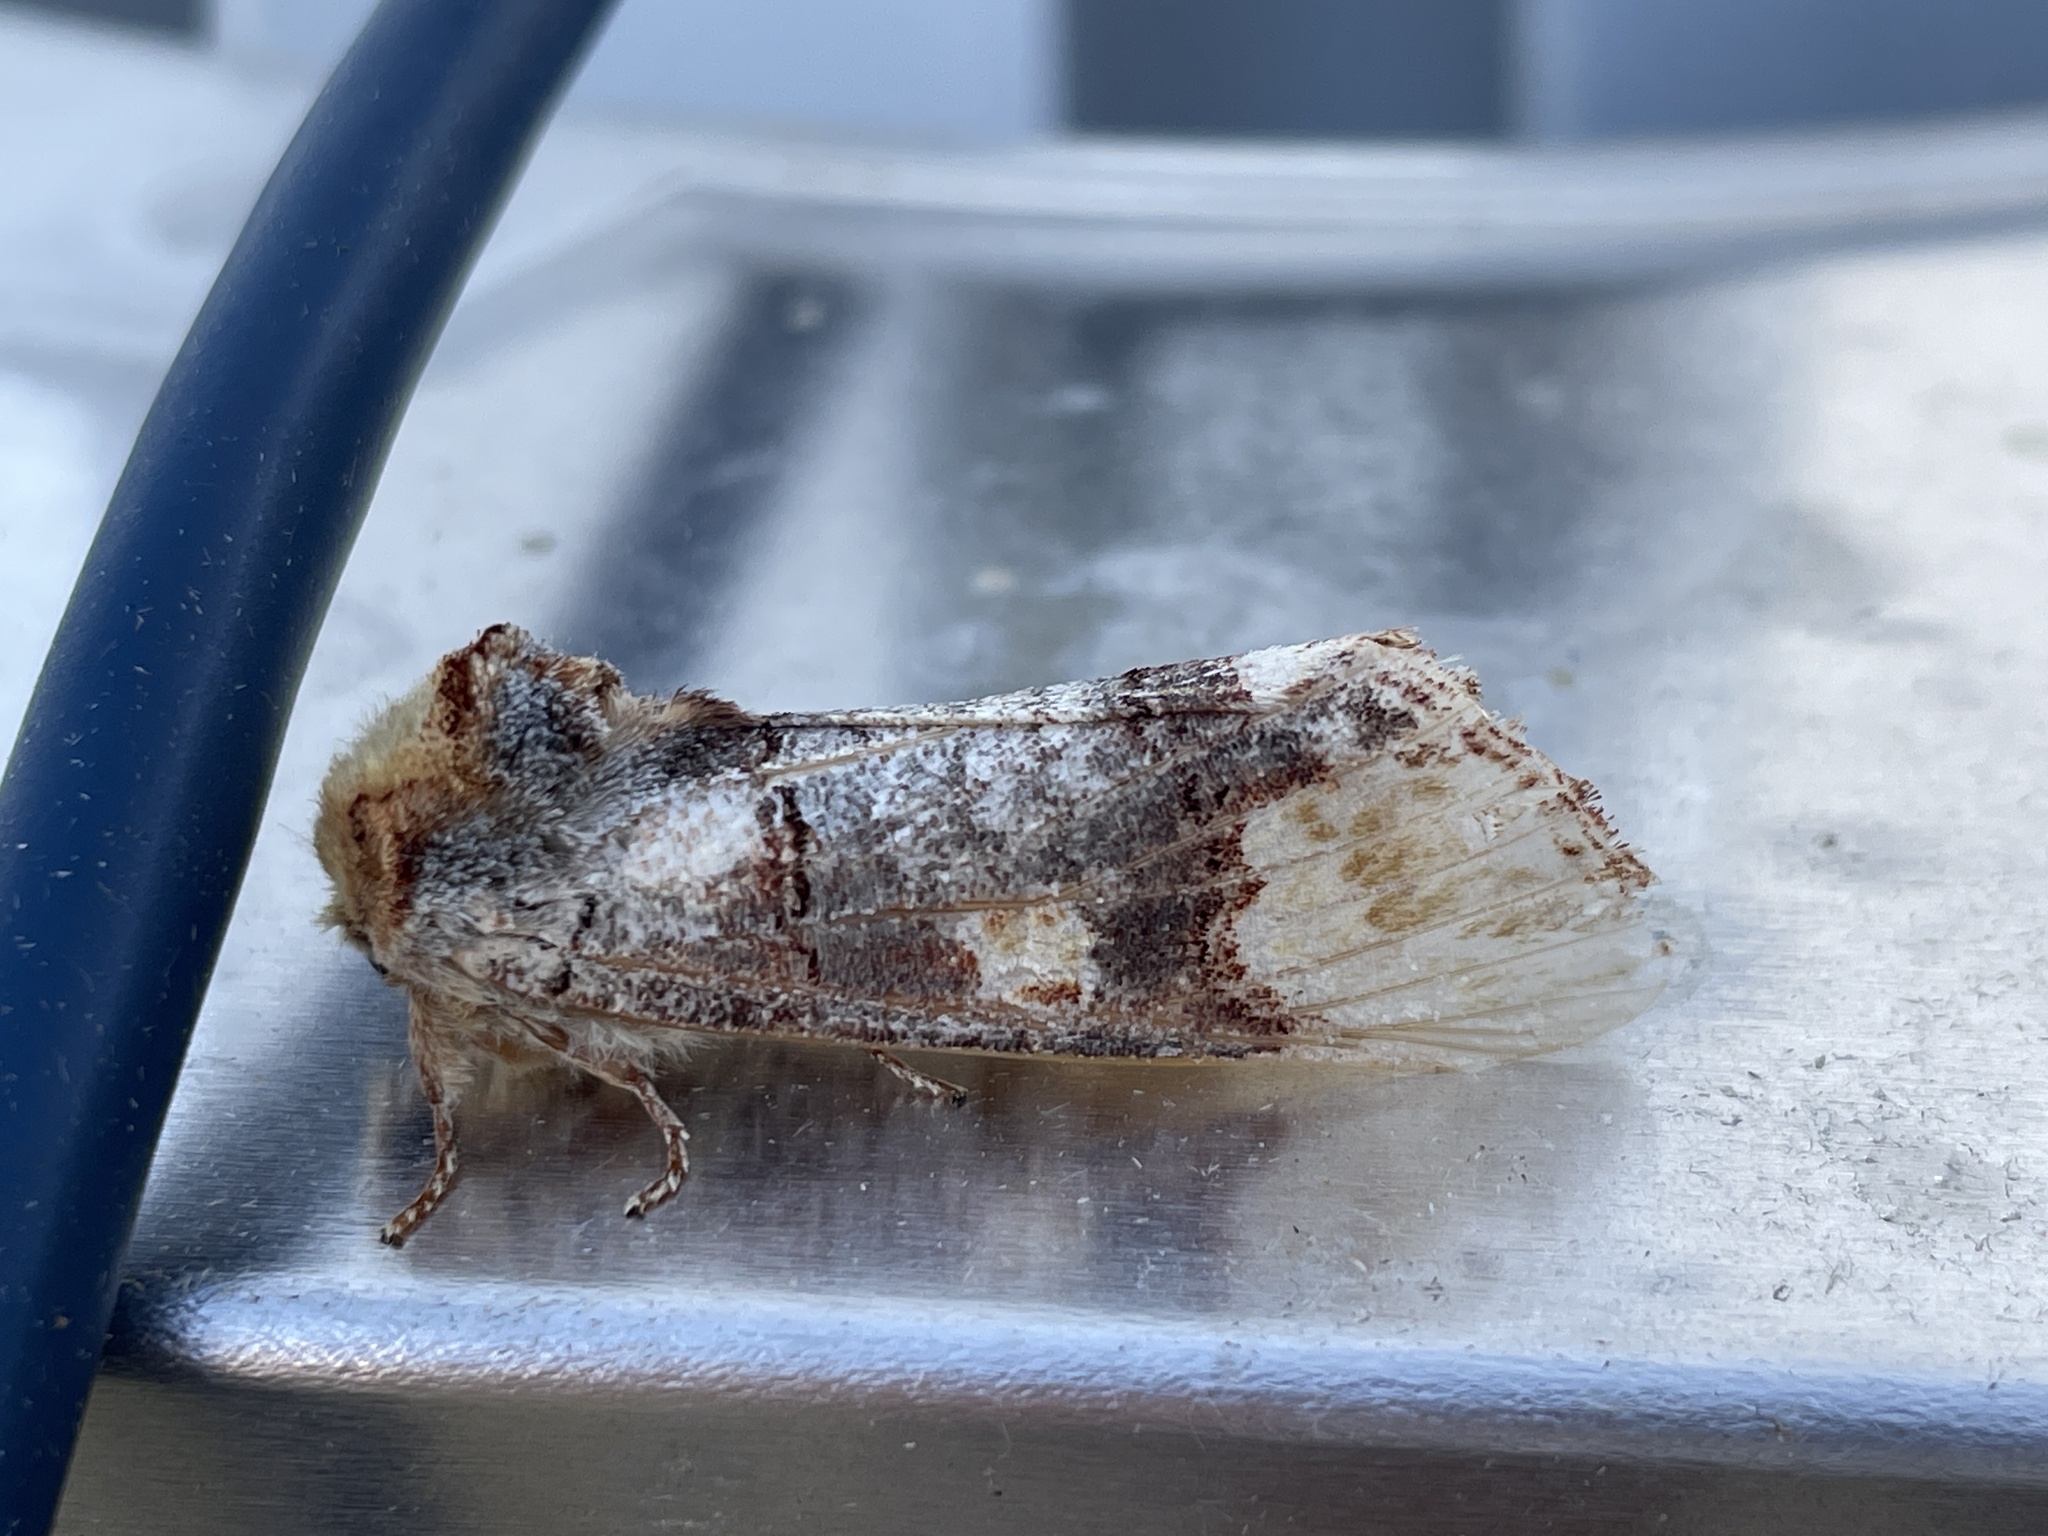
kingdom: Animalia
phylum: Arthropoda
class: Insecta
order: Lepidoptera
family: Notodontidae
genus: Phalera
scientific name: Phalera bucephaloides
